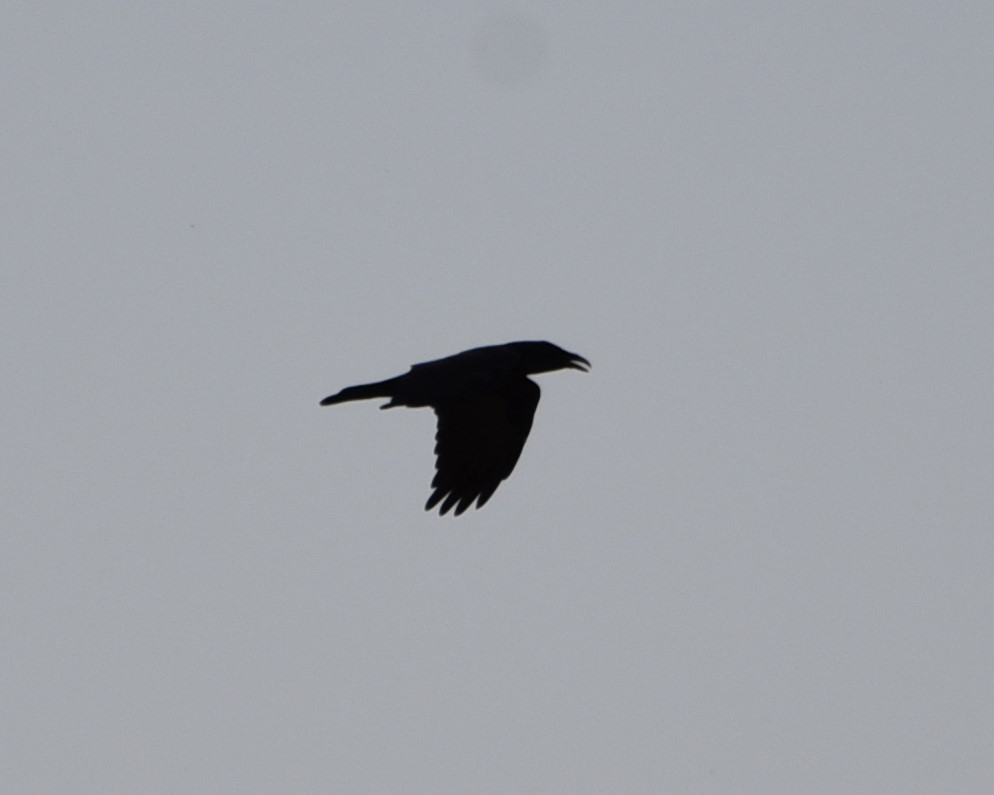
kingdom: Animalia
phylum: Chordata
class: Aves
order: Passeriformes
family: Corvidae
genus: Corvus
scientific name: Corvus corax
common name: Common raven
